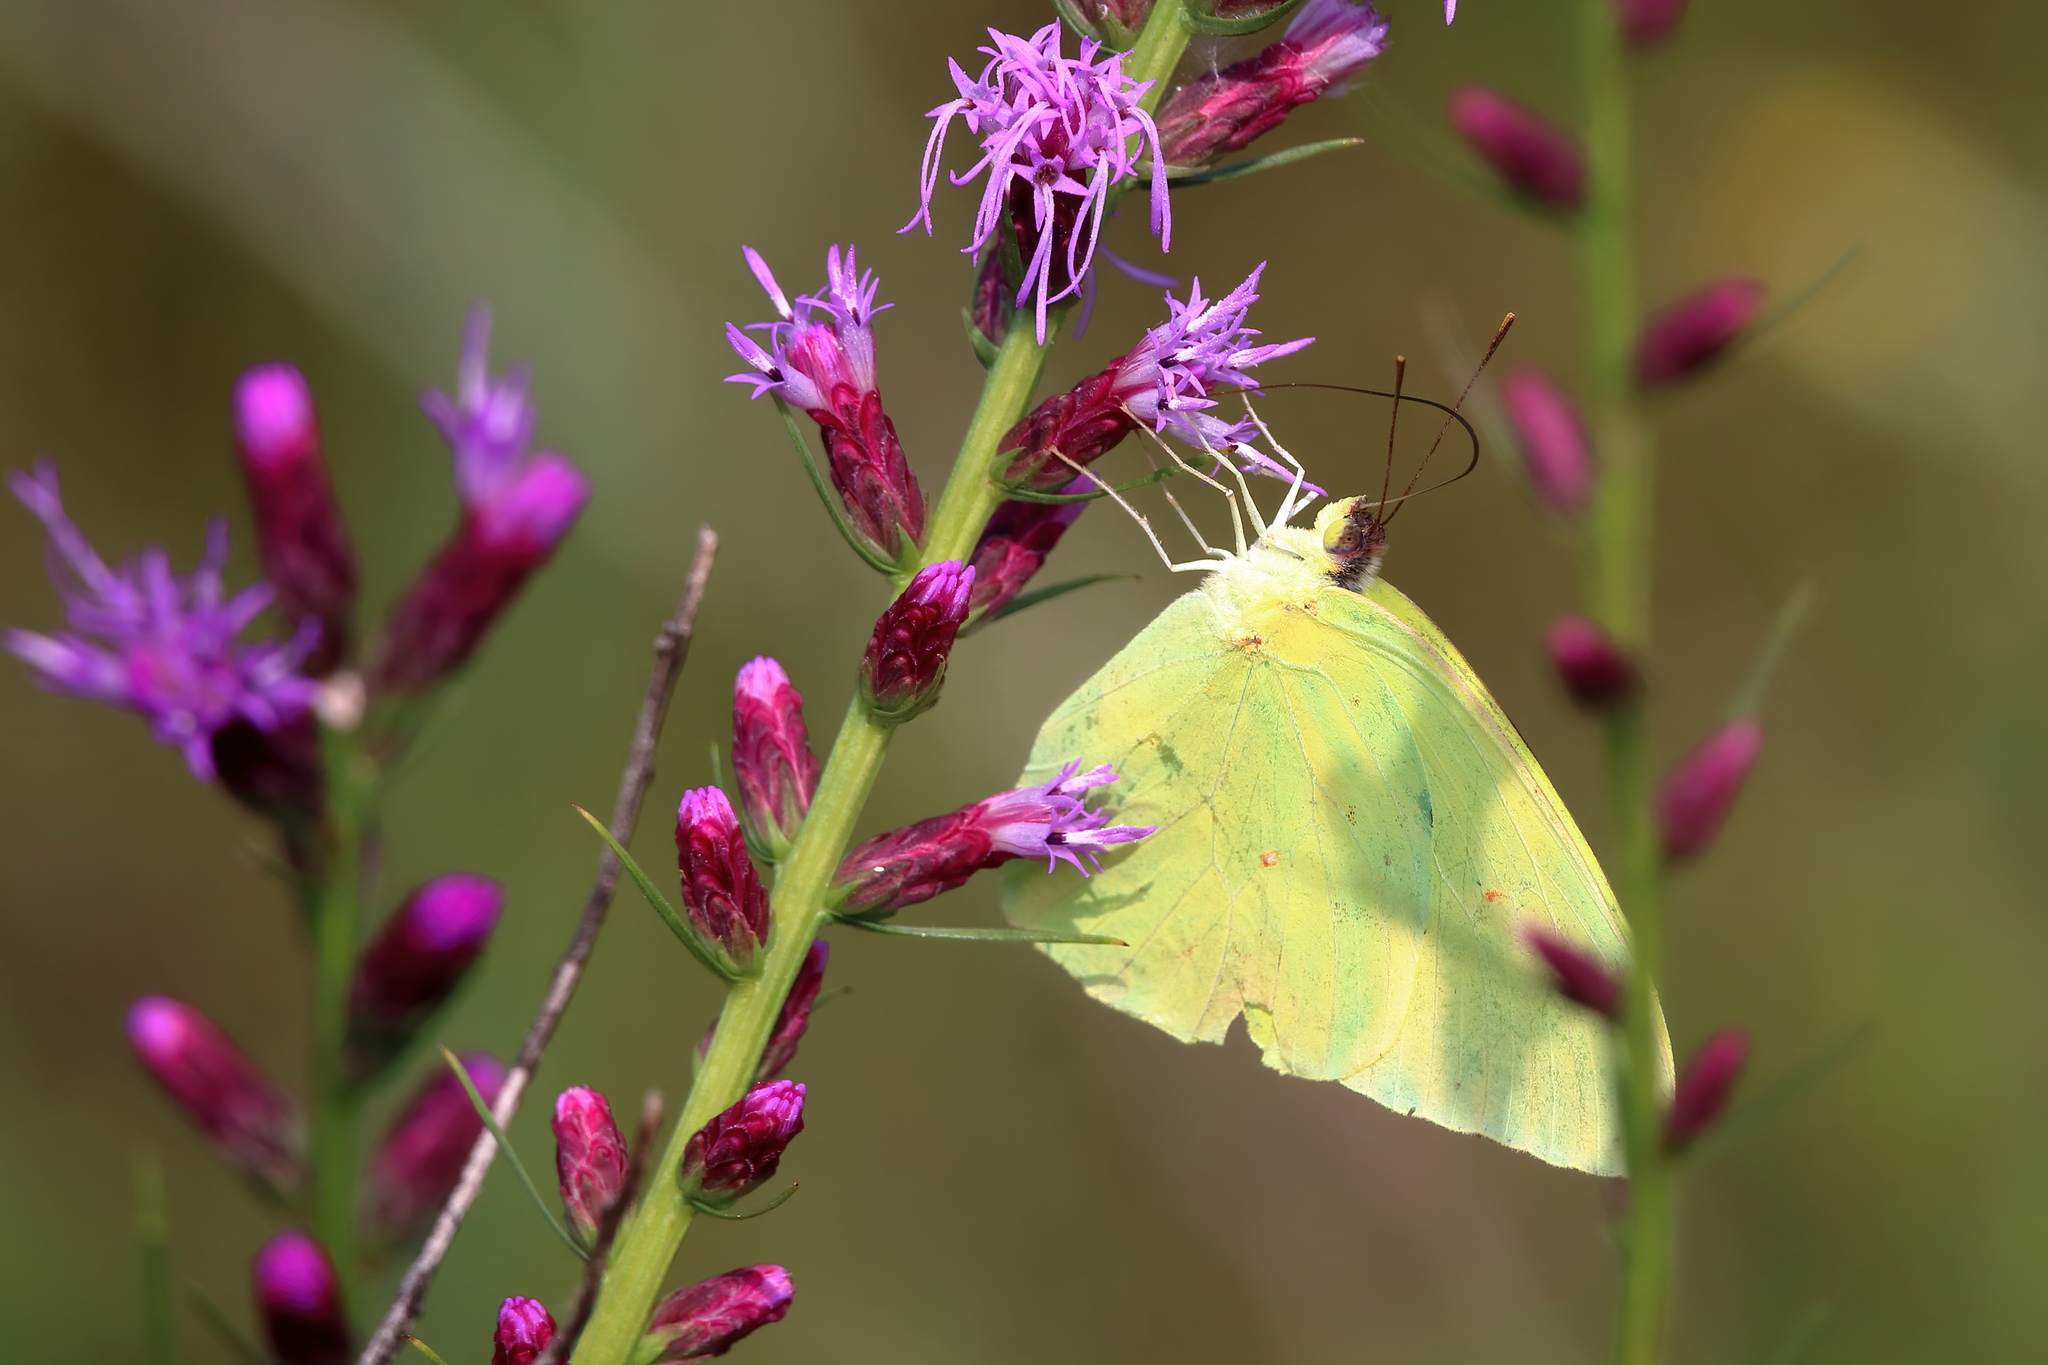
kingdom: Animalia
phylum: Arthropoda
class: Insecta
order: Lepidoptera
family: Pieridae
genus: Phoebis
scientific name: Phoebis sennae
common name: Cloudless sulphur
